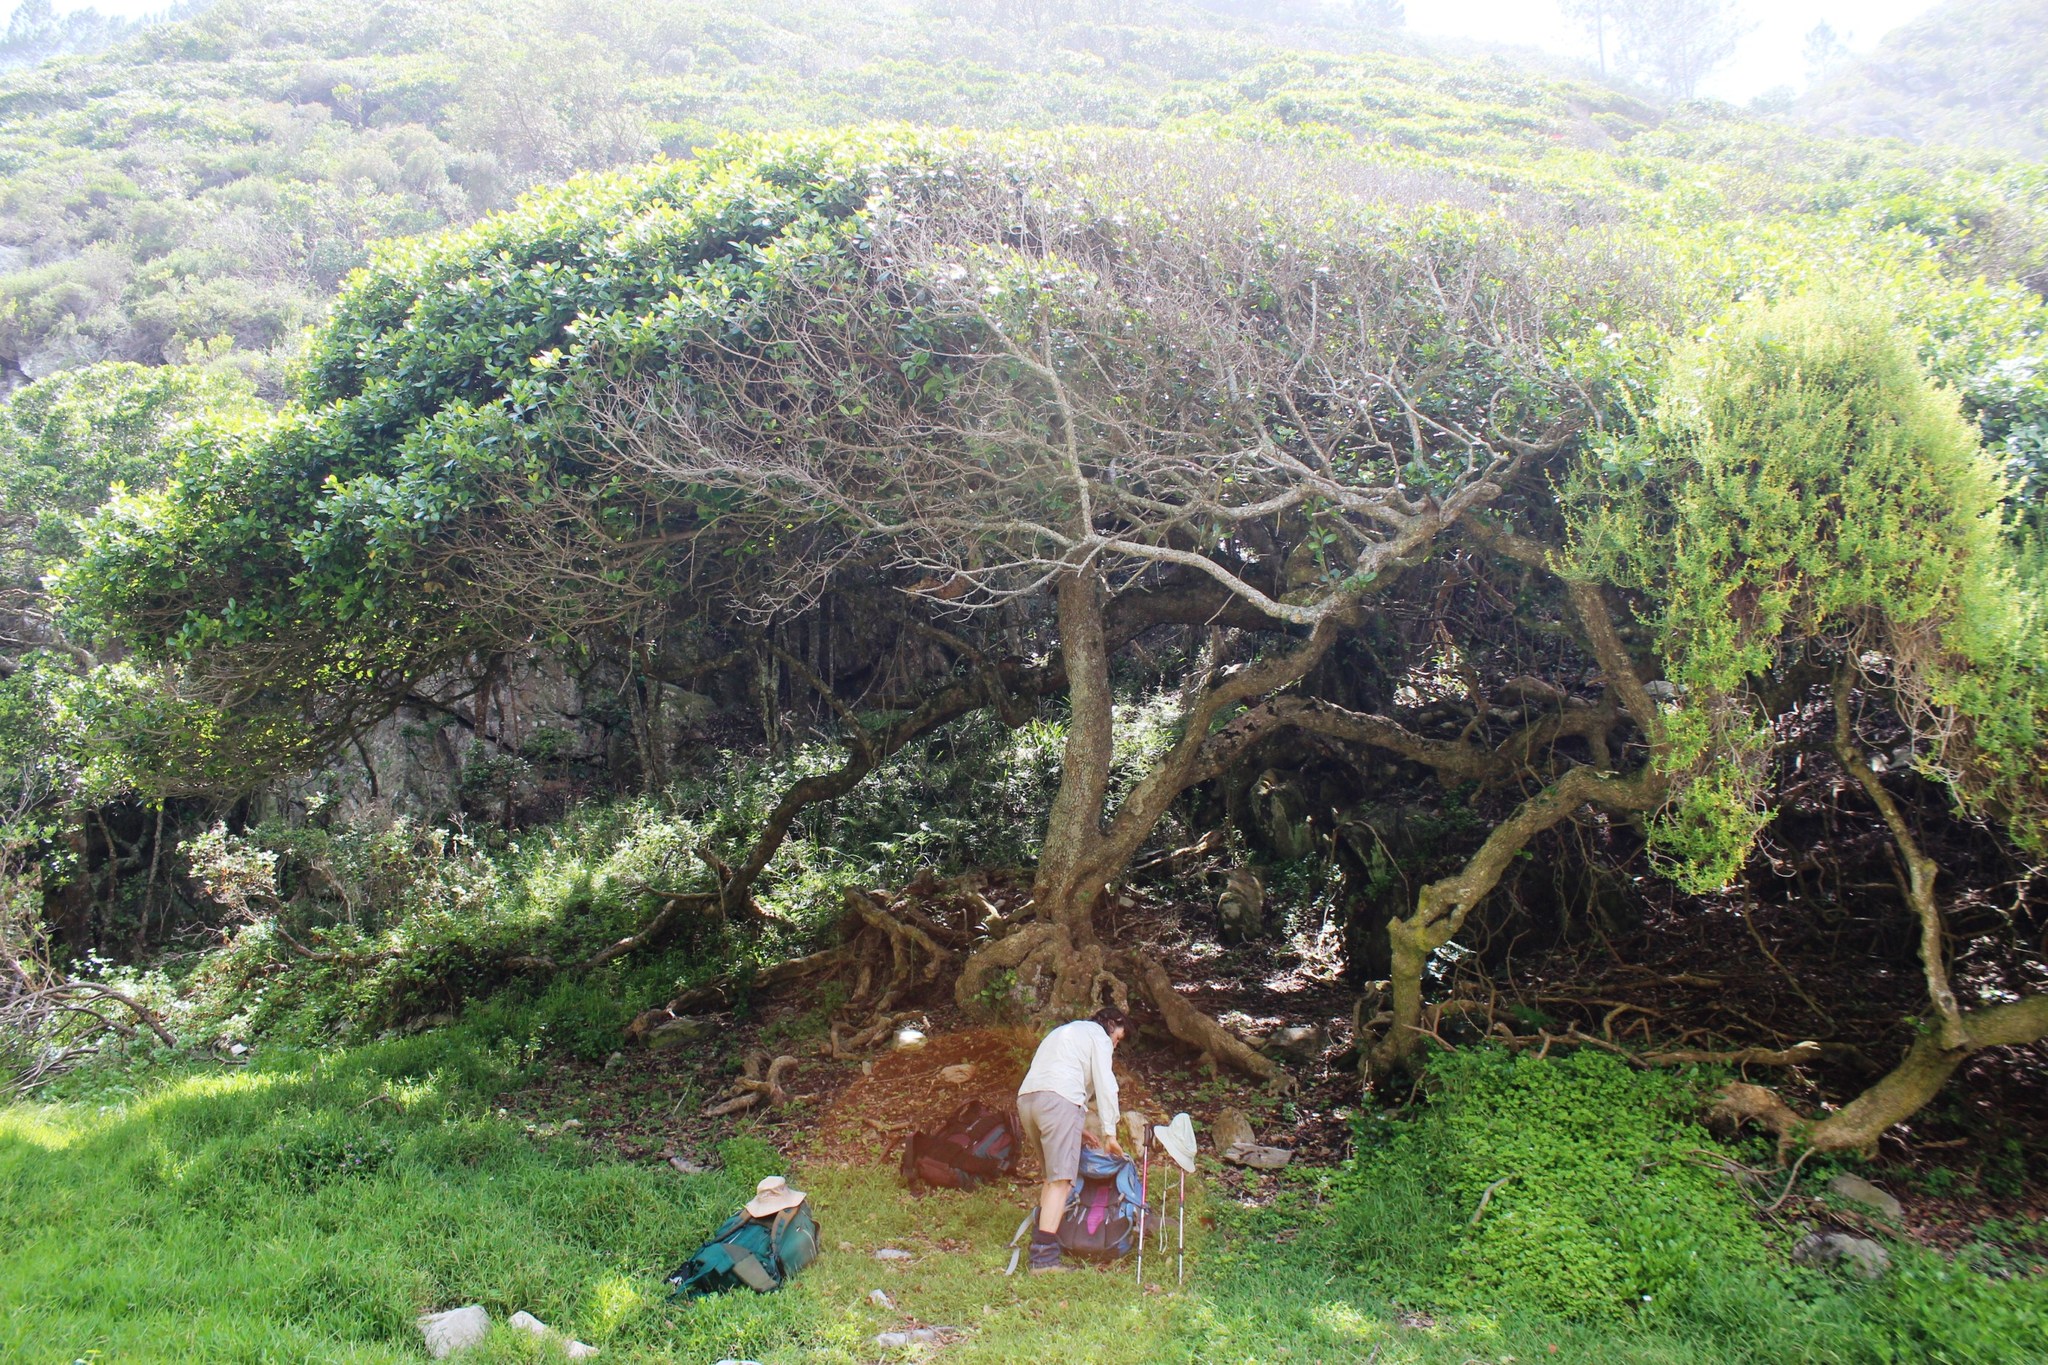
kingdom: Plantae
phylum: Tracheophyta
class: Magnoliopsida
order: Ericales
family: Sapotaceae
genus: Sideroxylon
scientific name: Sideroxylon inerme
